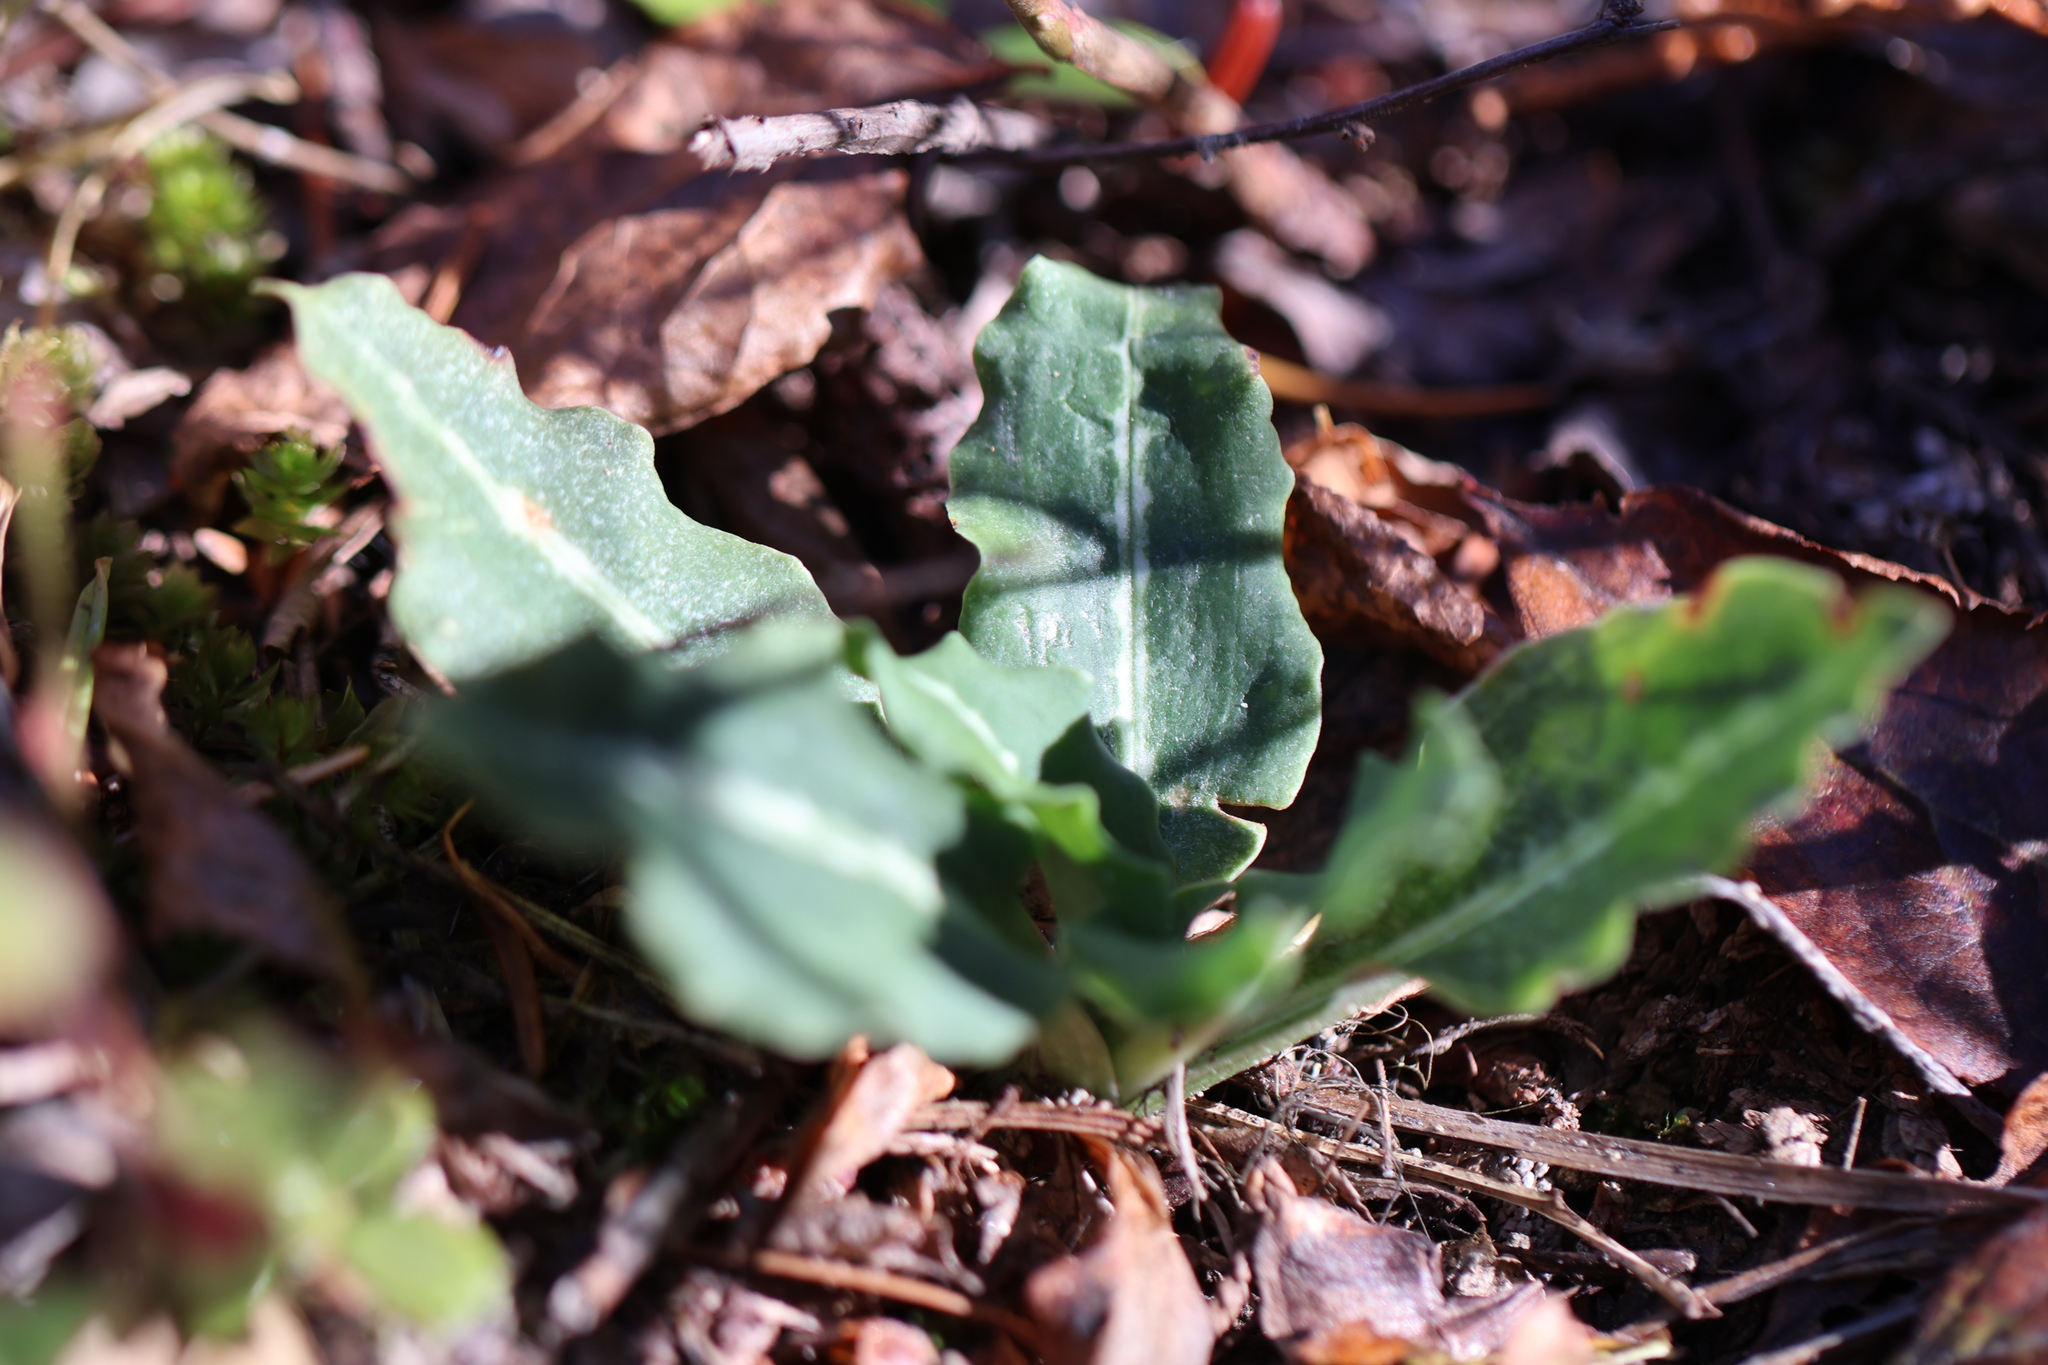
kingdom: Plantae
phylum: Tracheophyta
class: Liliopsida
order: Asparagales
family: Orchidaceae
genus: Goodyera
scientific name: Goodyera oblongifolia
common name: Giant rattlesnake-plantain
